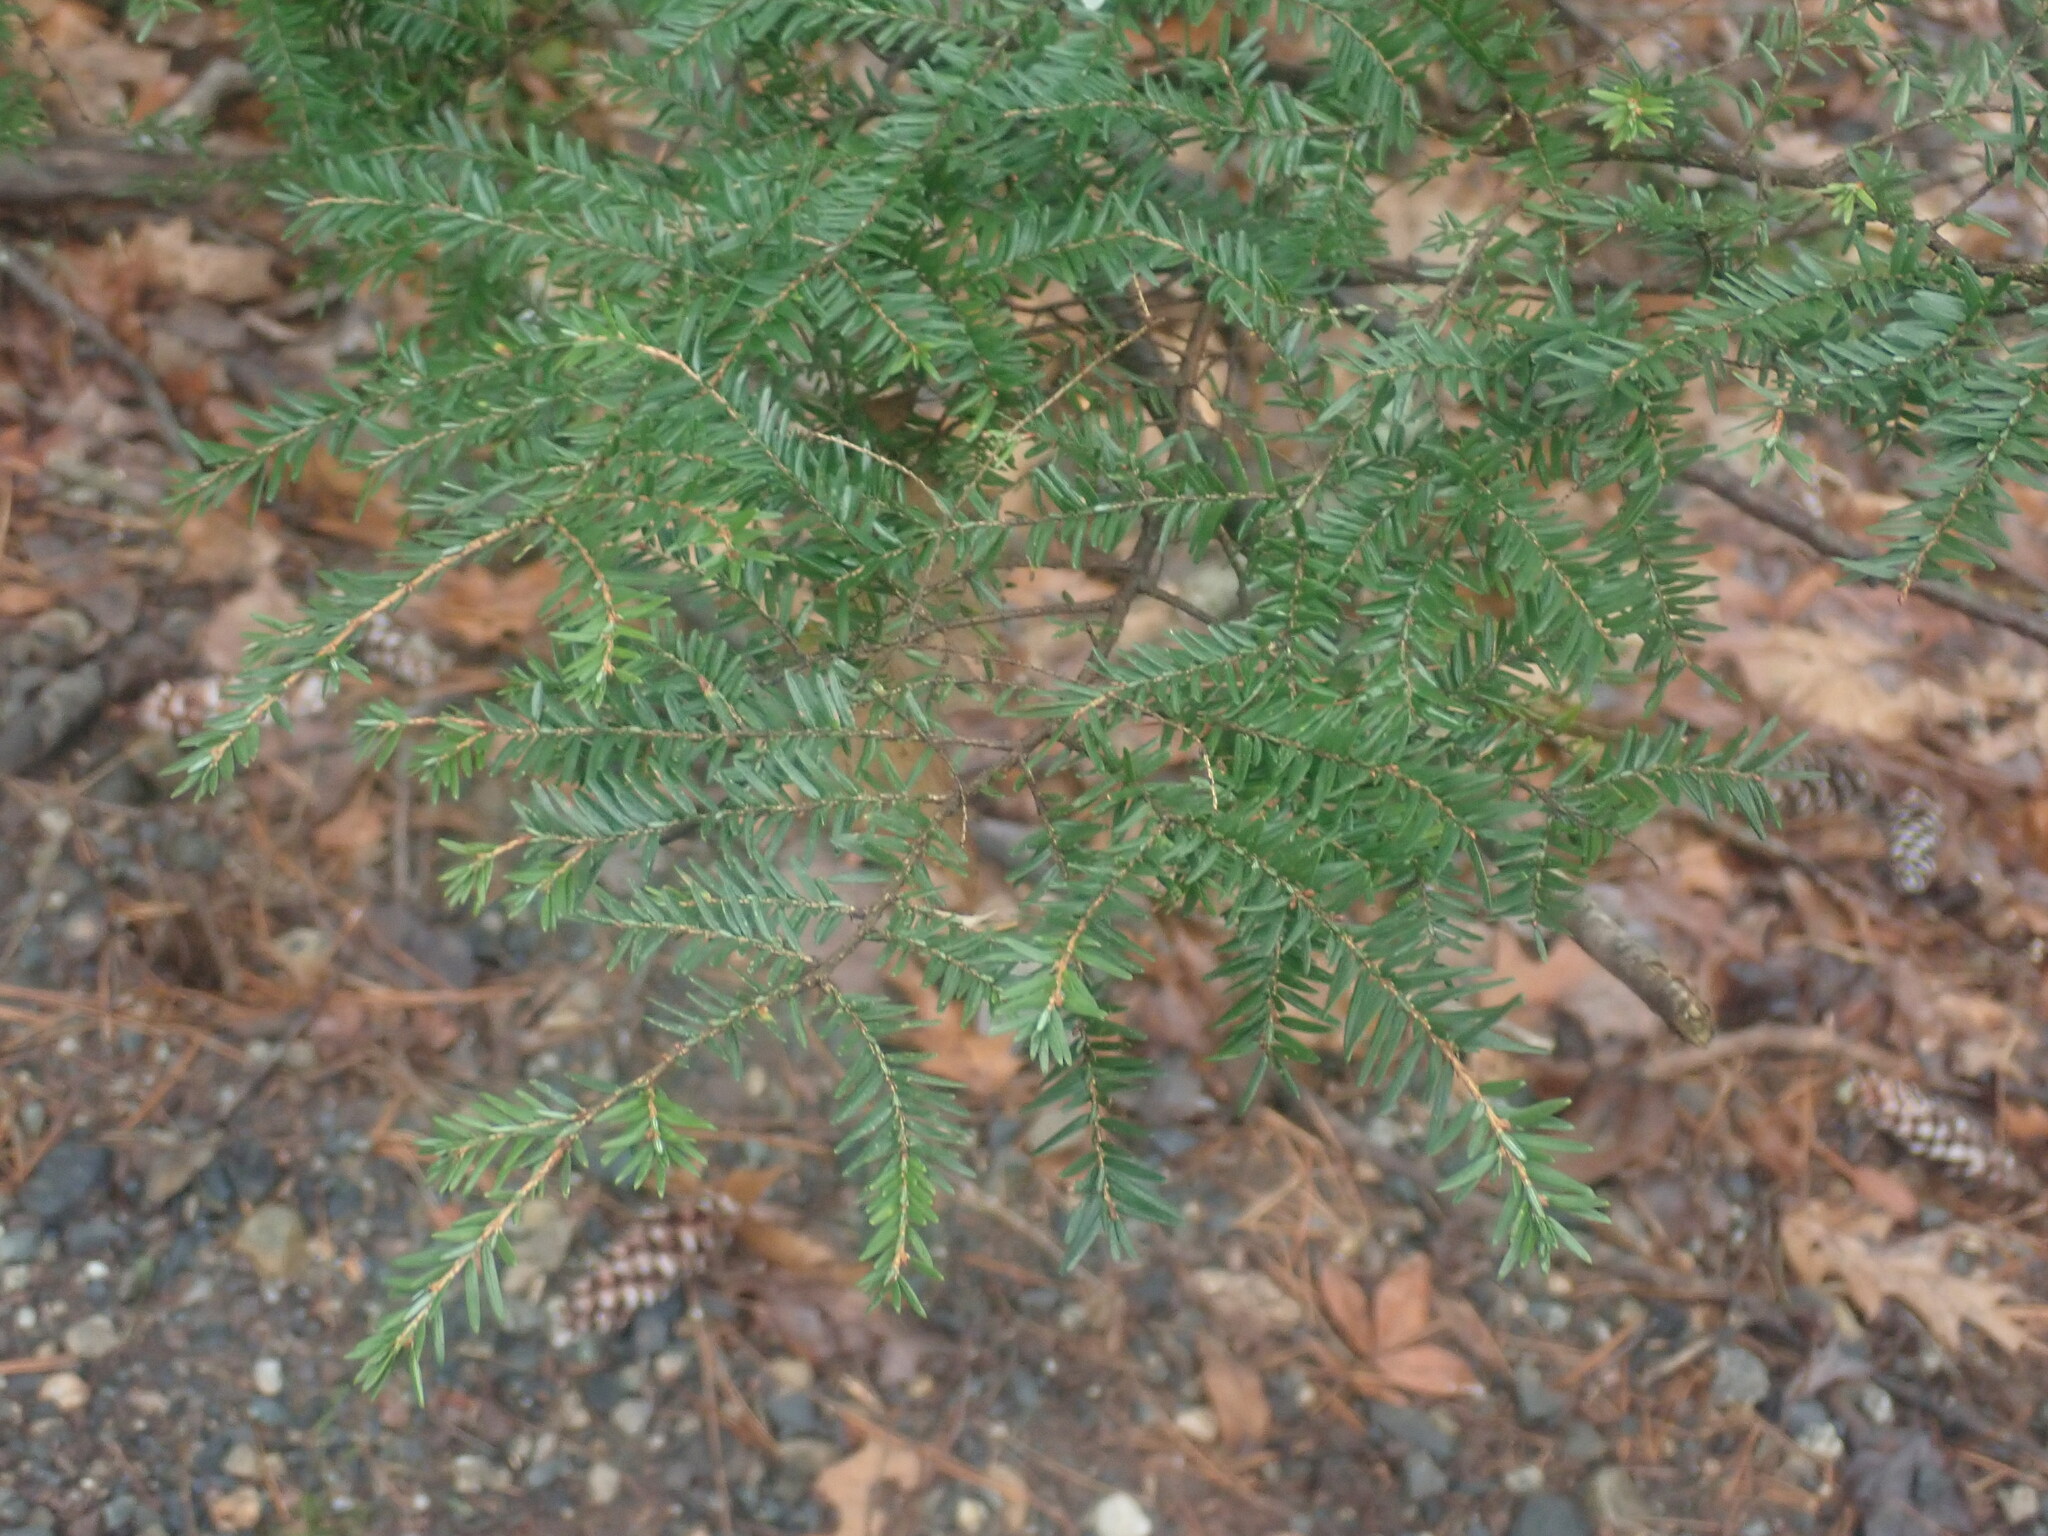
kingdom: Plantae
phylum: Tracheophyta
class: Pinopsida
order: Pinales
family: Pinaceae
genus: Tsuga
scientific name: Tsuga canadensis
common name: Eastern hemlock
